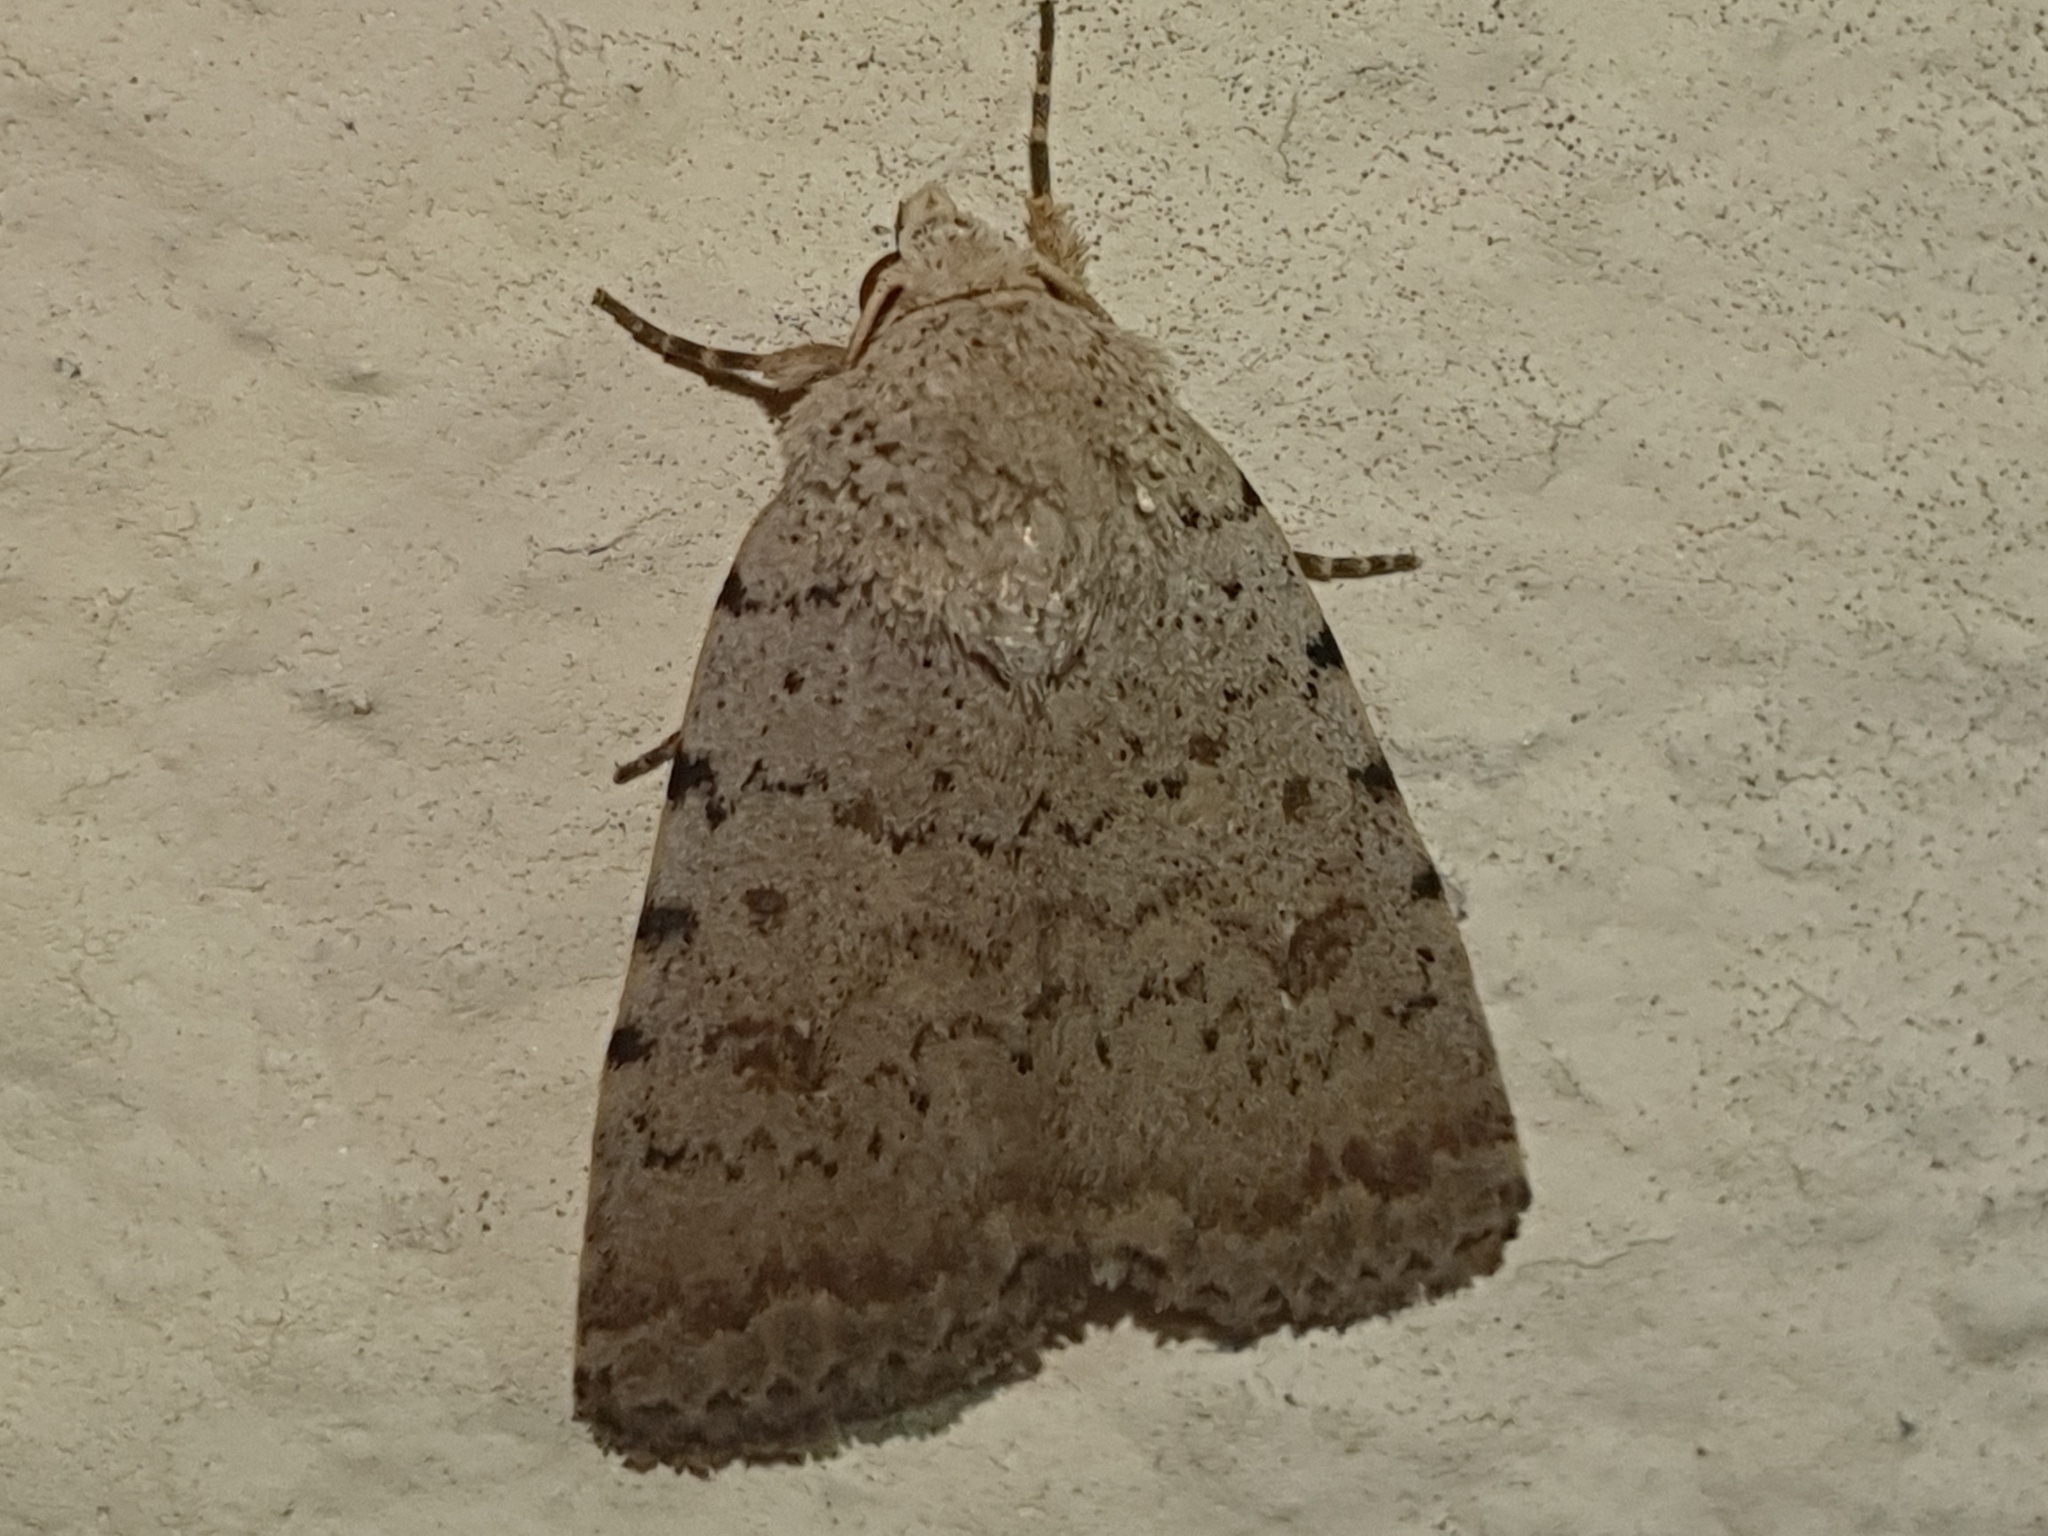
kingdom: Animalia
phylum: Arthropoda
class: Insecta
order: Lepidoptera
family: Noctuidae
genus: Caradrina
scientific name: Caradrina selini
